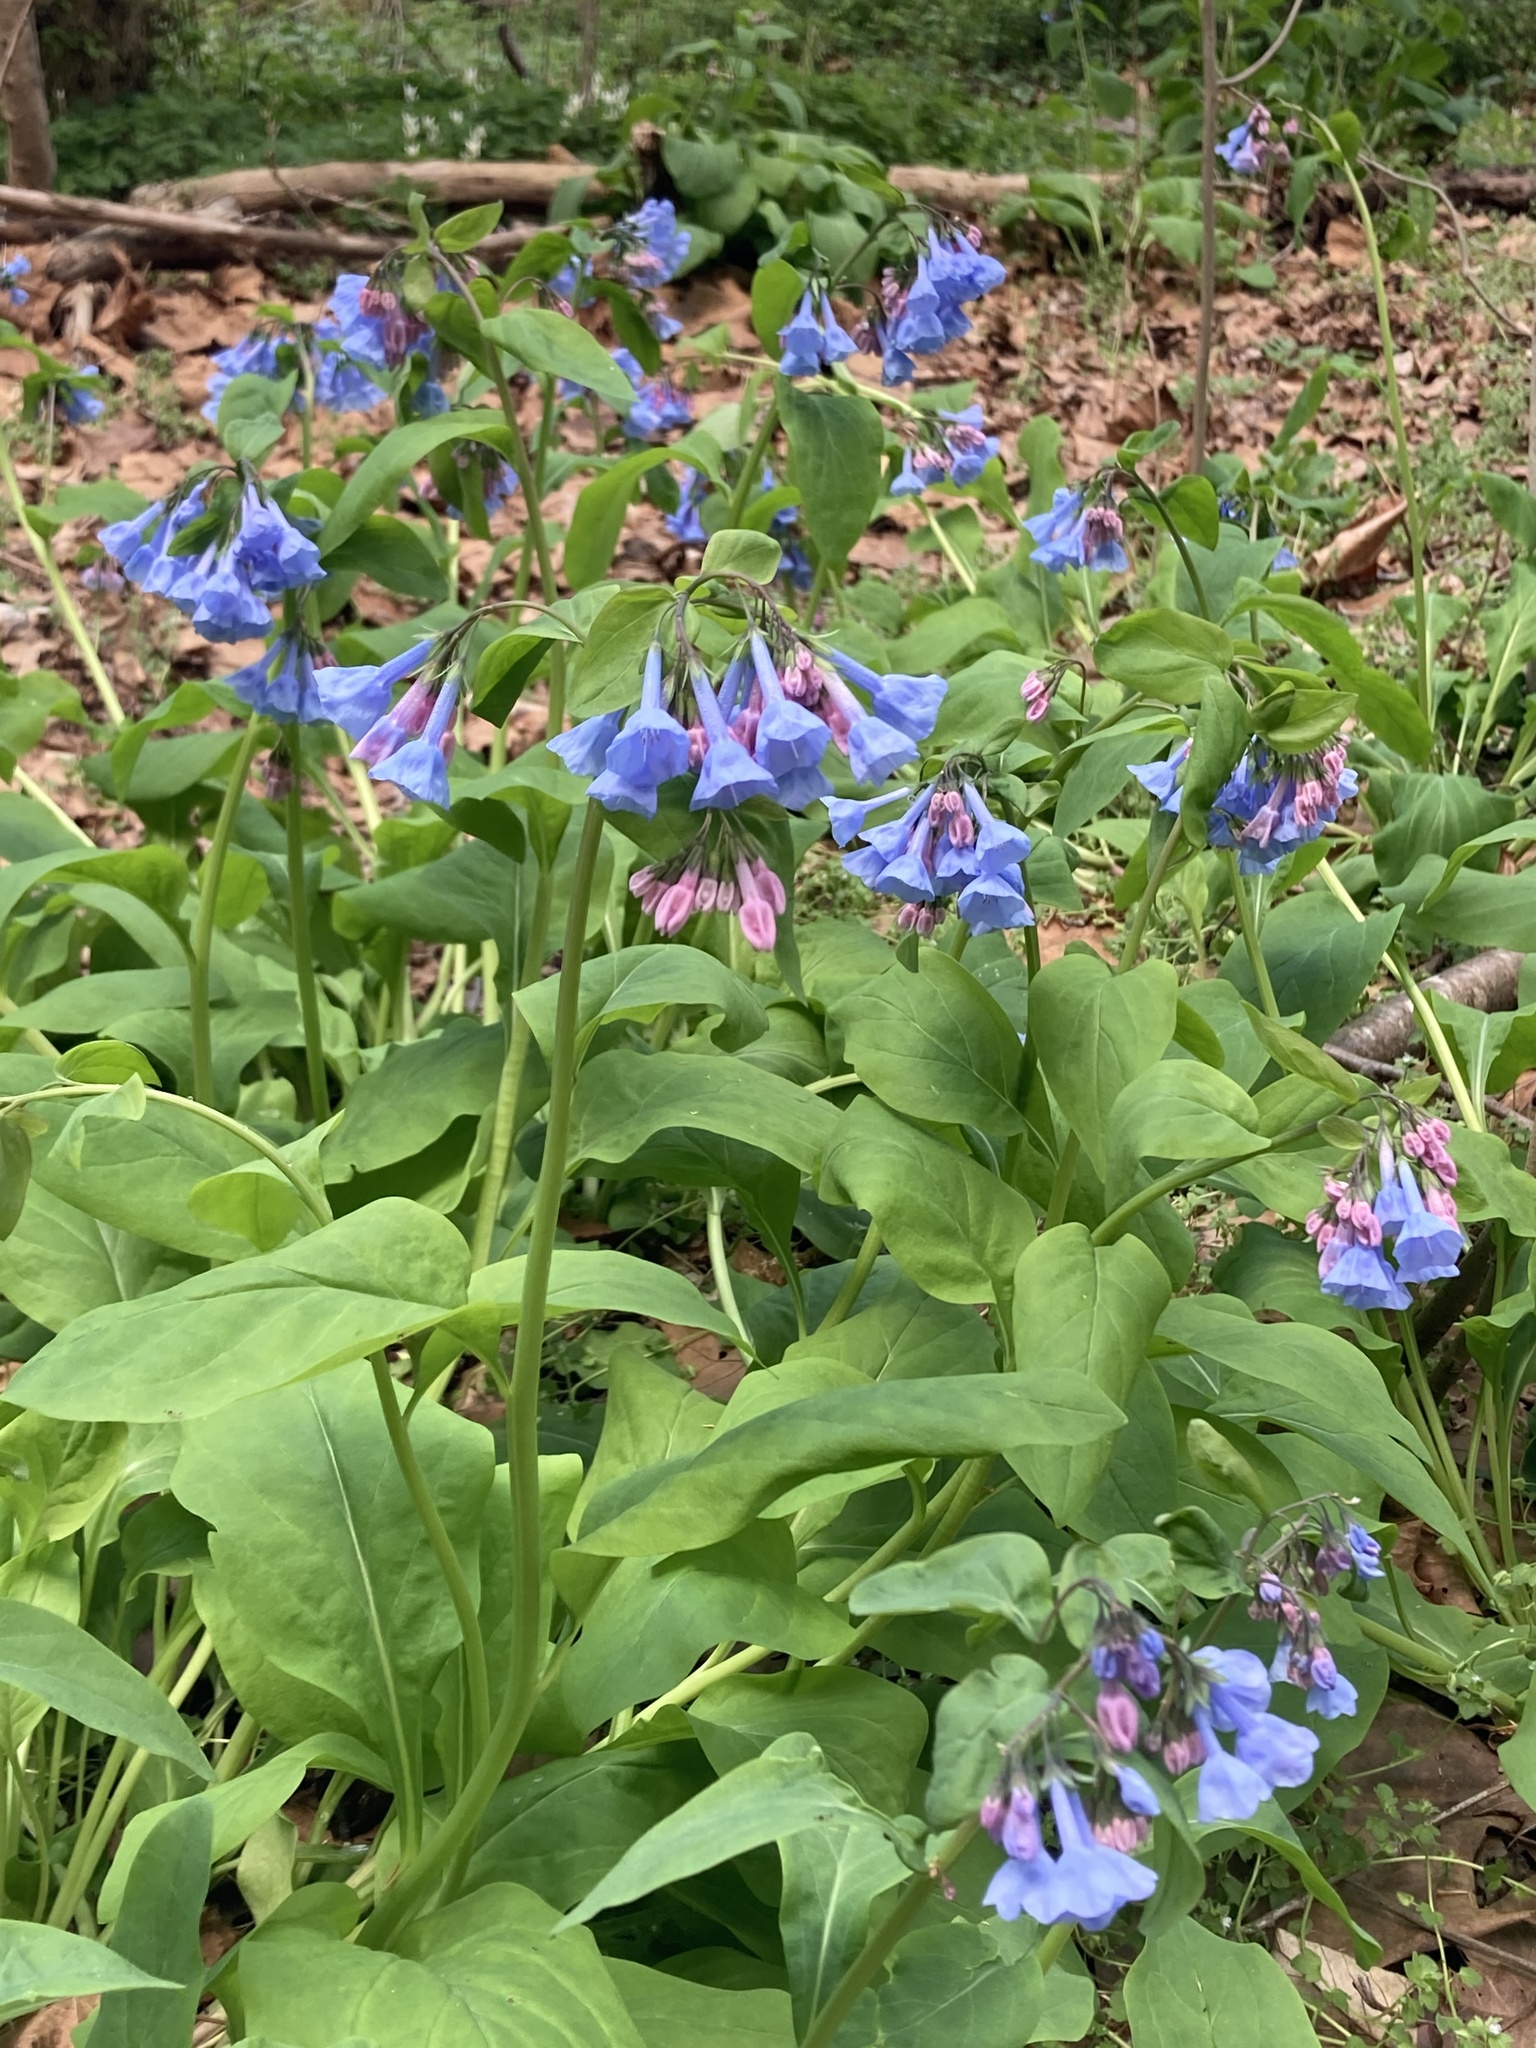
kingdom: Plantae
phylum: Tracheophyta
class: Magnoliopsida
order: Boraginales
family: Boraginaceae
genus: Mertensia
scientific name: Mertensia virginica
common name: Virginia bluebells
